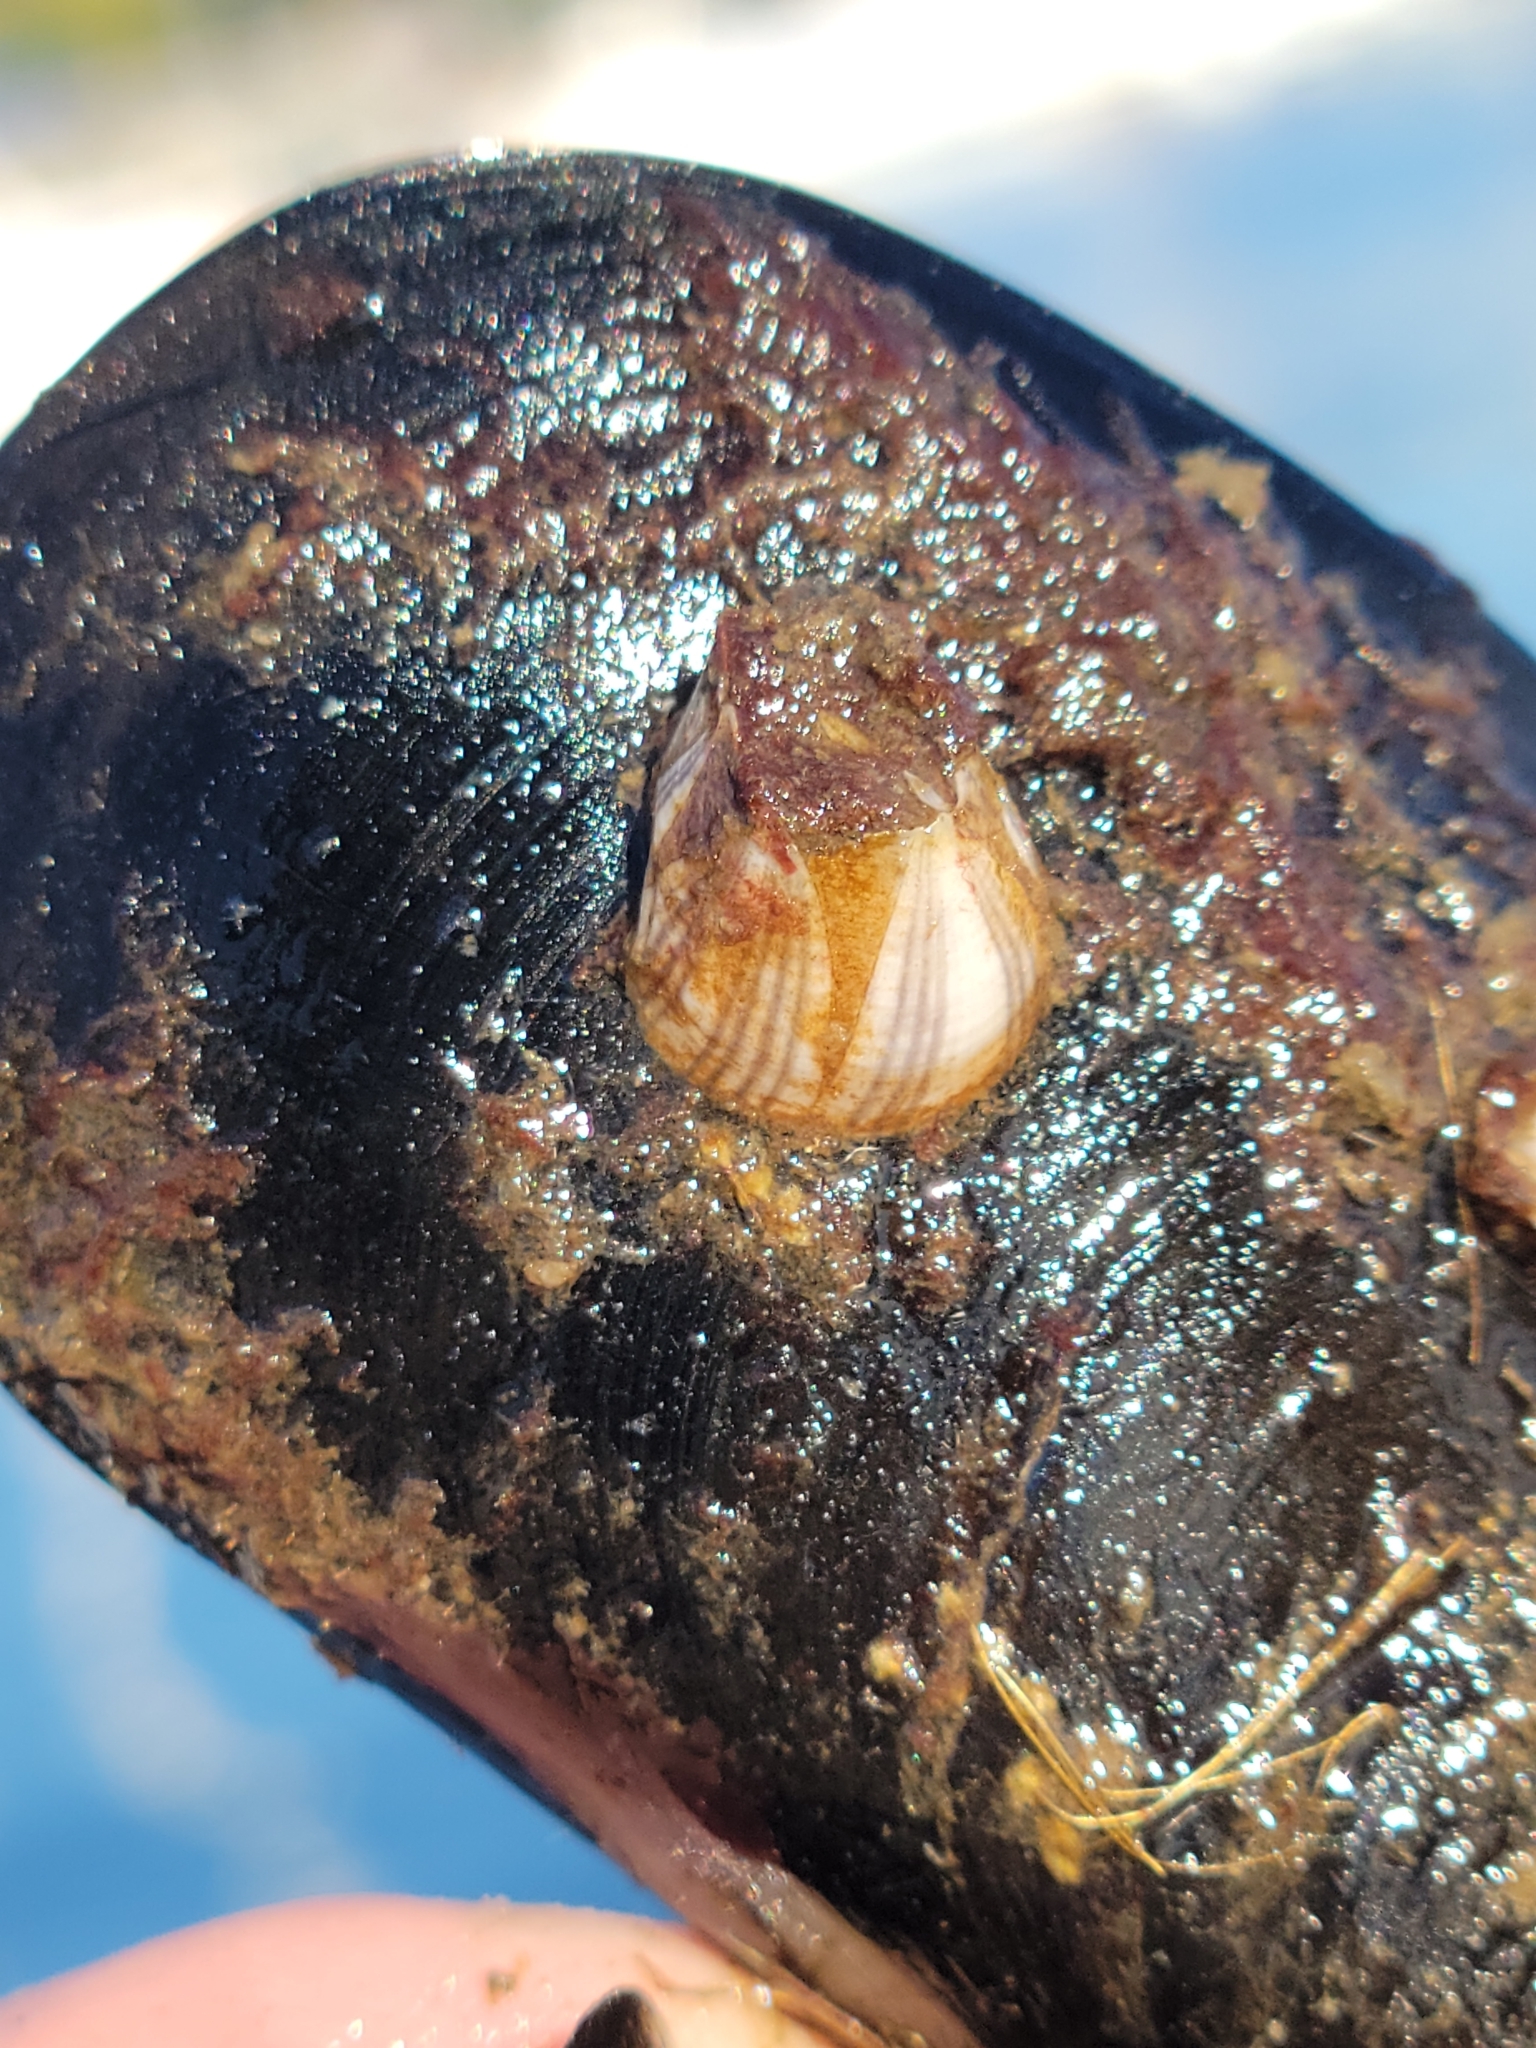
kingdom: Animalia
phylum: Arthropoda
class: Maxillopoda
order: Sessilia
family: Balanidae
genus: Amphibalanus
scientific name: Amphibalanus amphitrite
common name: Striped acorn barnacle
